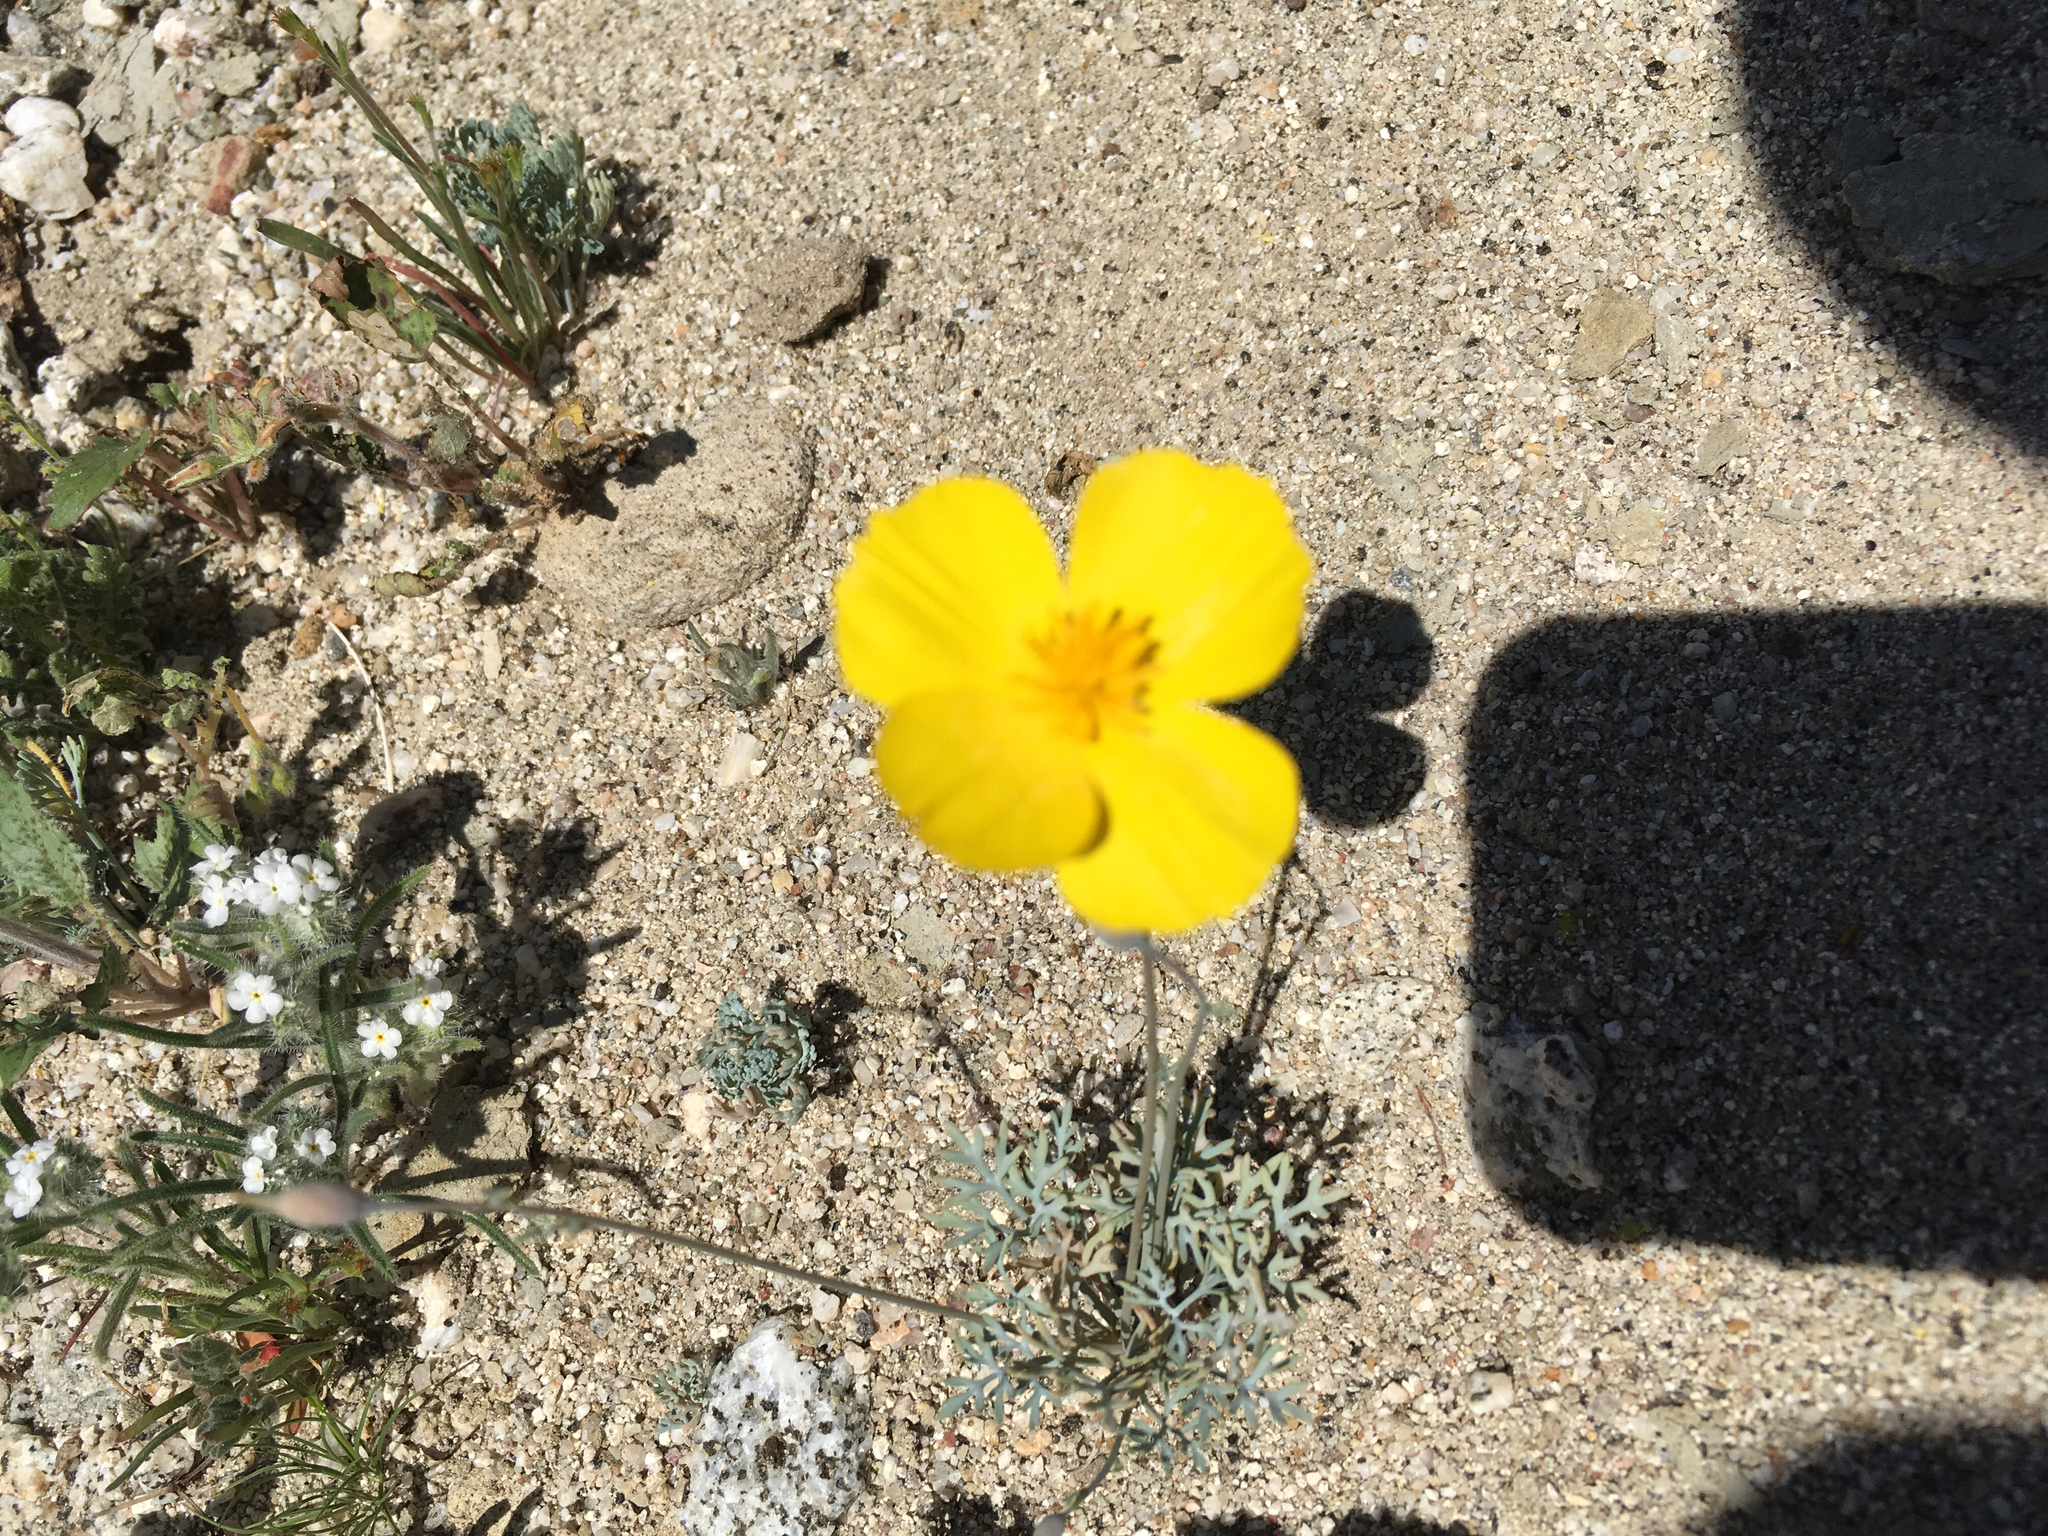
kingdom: Plantae
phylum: Tracheophyta
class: Magnoliopsida
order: Ranunculales
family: Papaveraceae
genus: Eschscholzia
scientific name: Eschscholzia parishii
